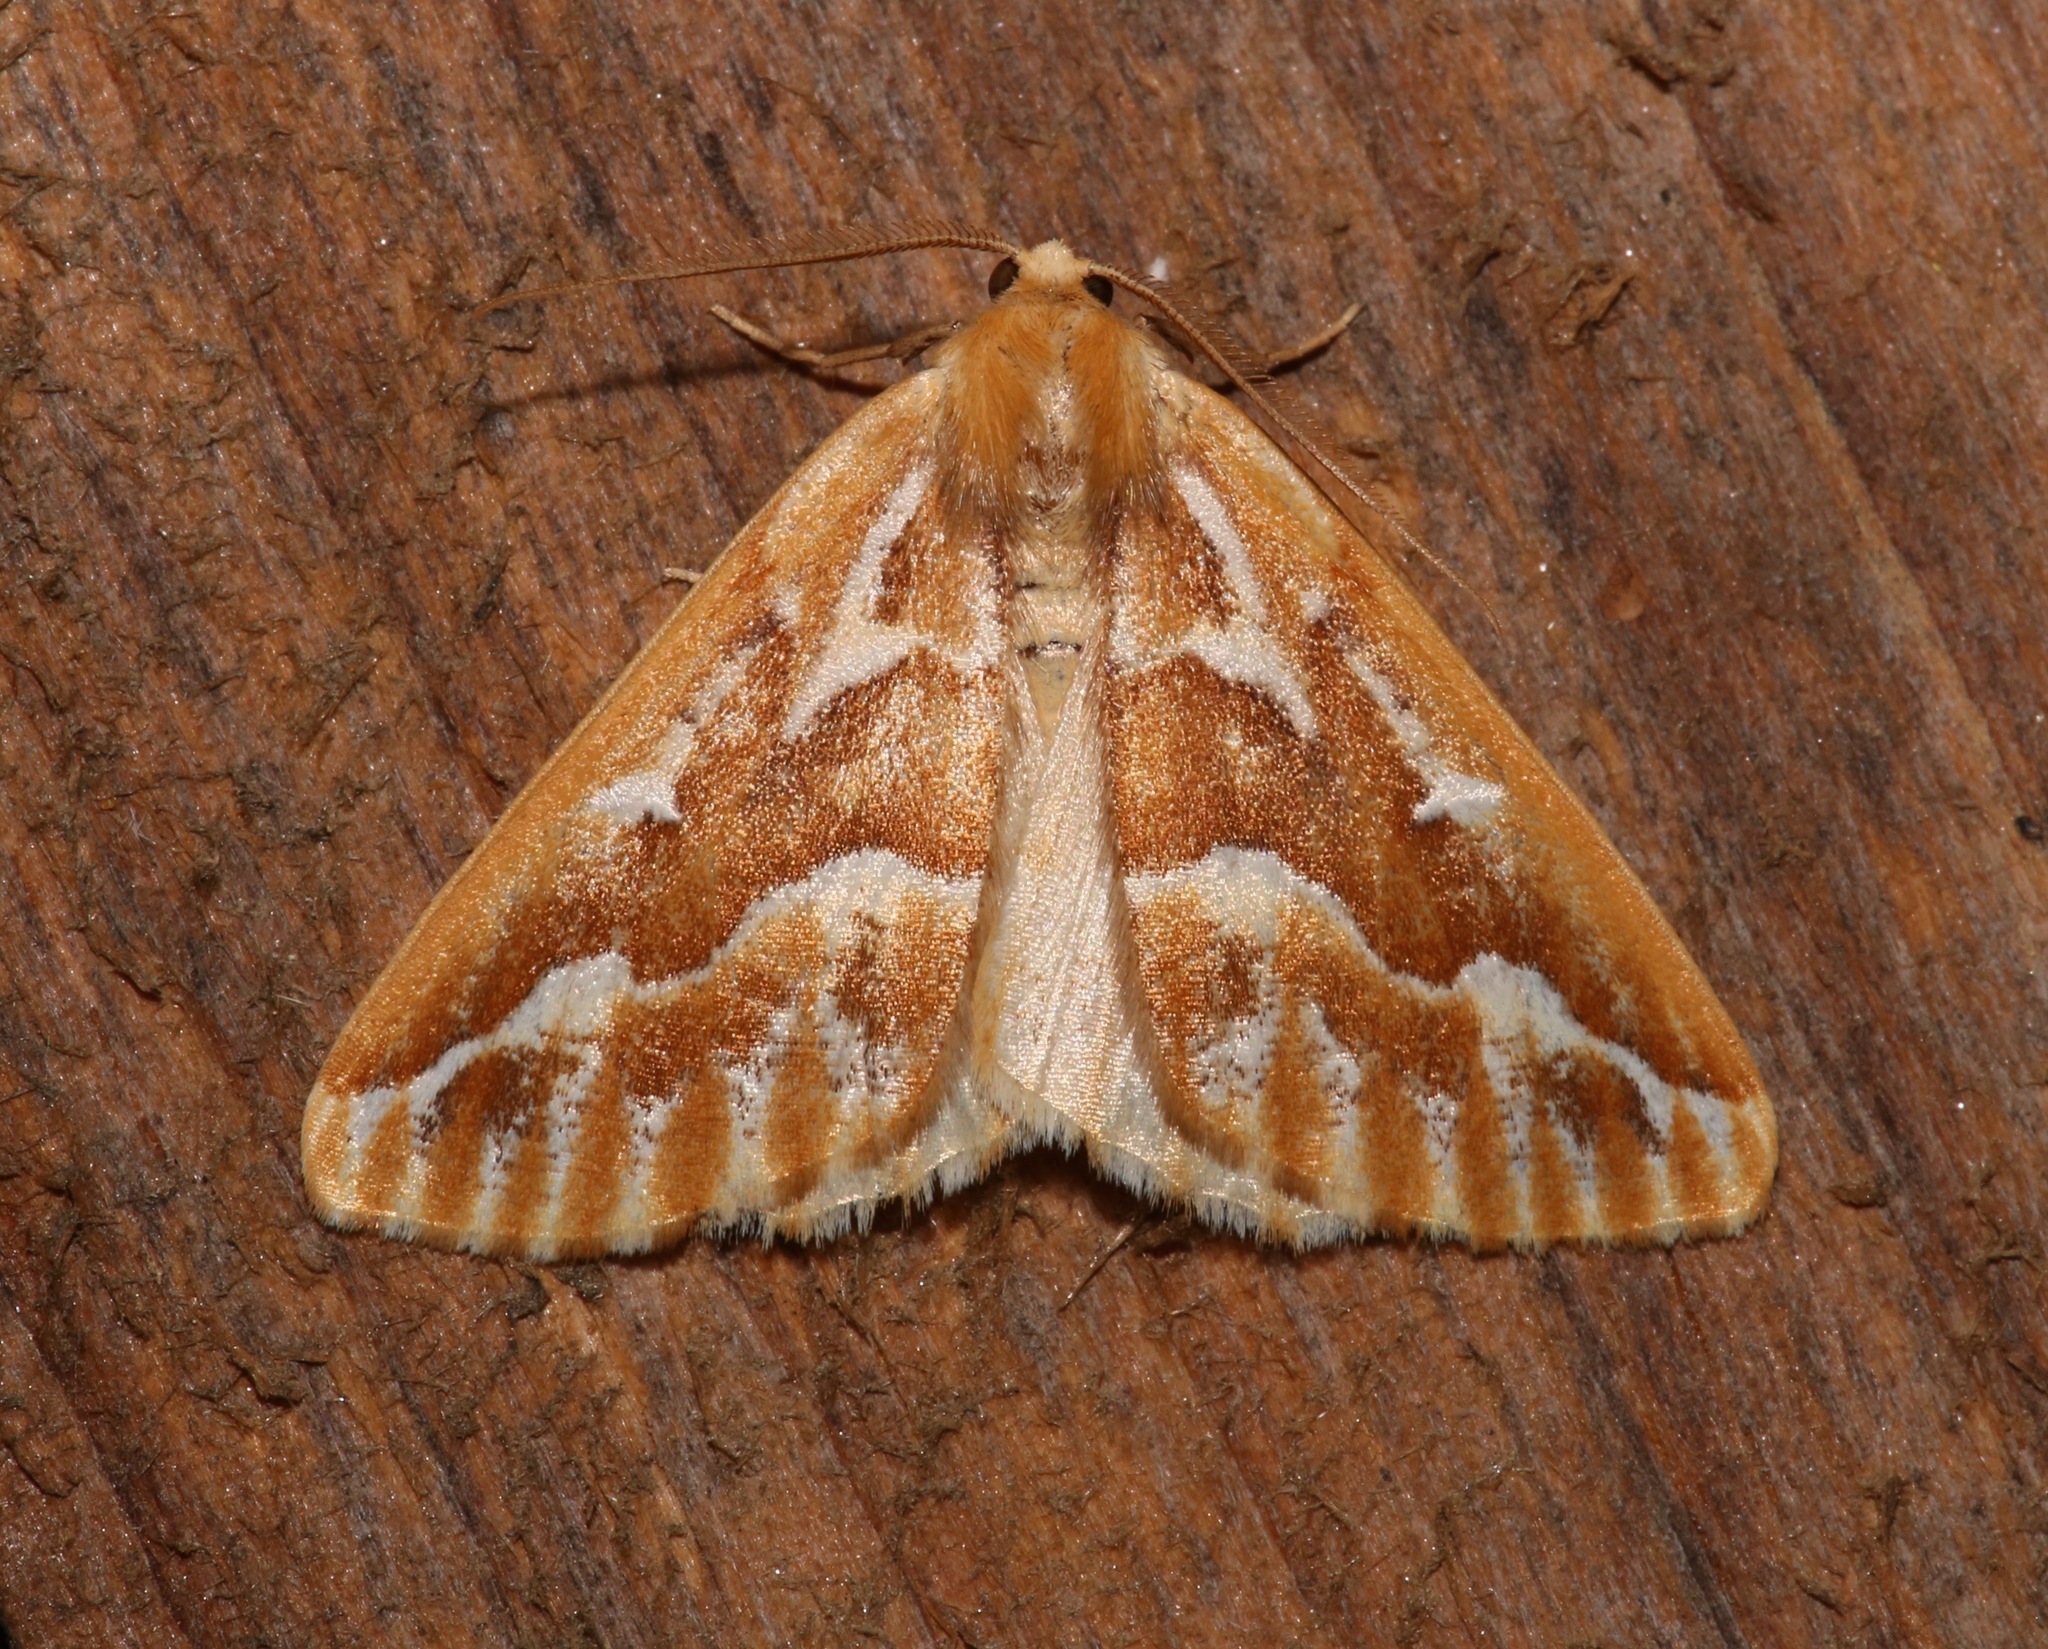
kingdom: Animalia
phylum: Arthropoda
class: Insecta
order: Lepidoptera
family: Geometridae
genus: Caripeta
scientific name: Caripeta piniata
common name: Northern pine looper moth
